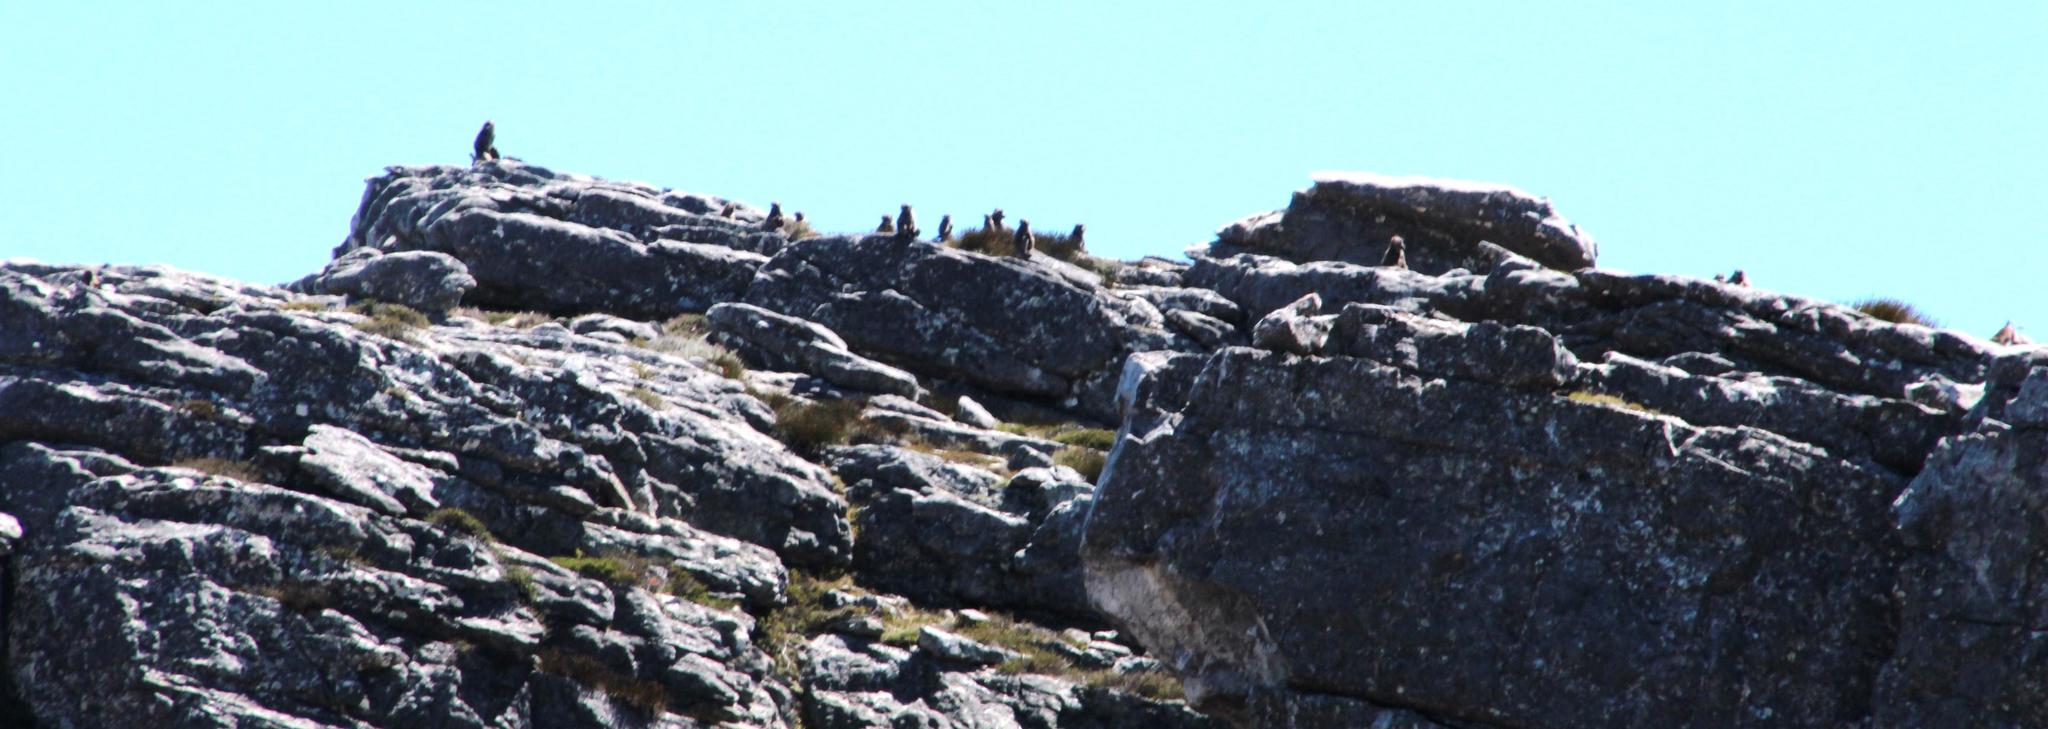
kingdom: Animalia
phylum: Chordata
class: Mammalia
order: Primates
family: Cercopithecidae
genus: Papio
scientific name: Papio ursinus
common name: Chacma baboon
